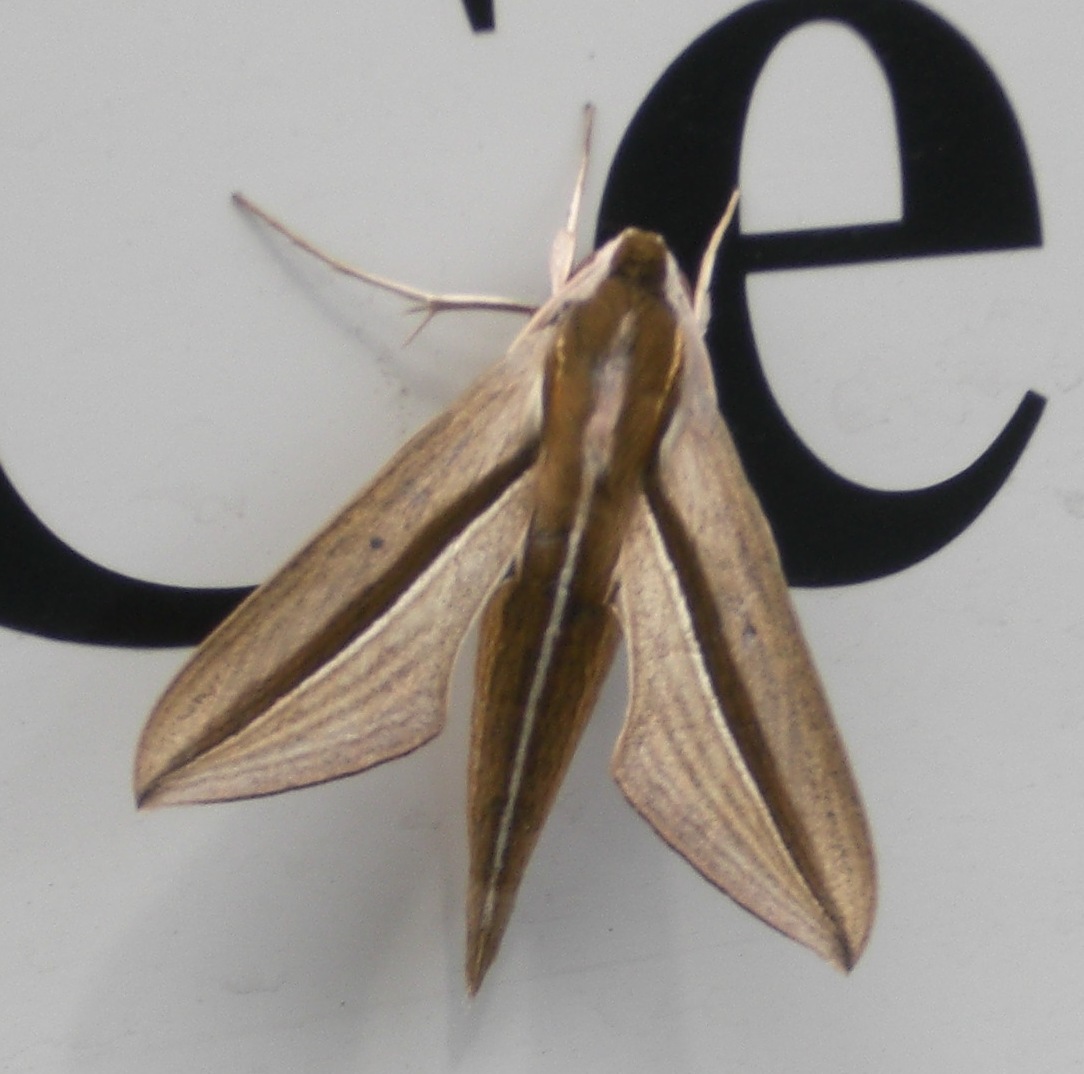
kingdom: Animalia
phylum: Arthropoda
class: Insecta
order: Lepidoptera
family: Sphingidae
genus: Theretra
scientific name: Theretra silhetensis
